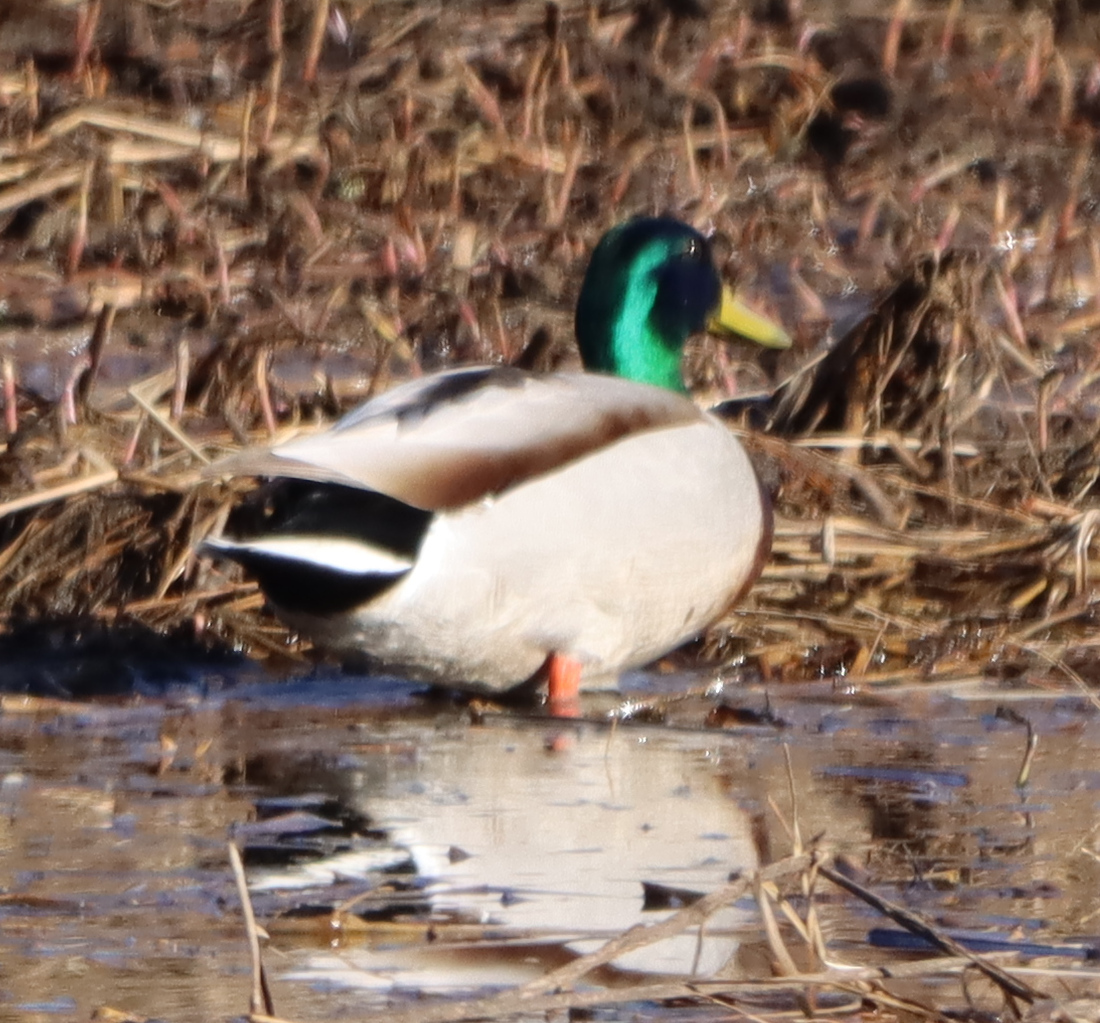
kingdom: Animalia
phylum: Chordata
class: Aves
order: Anseriformes
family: Anatidae
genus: Anas
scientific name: Anas platyrhynchos
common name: Mallard
